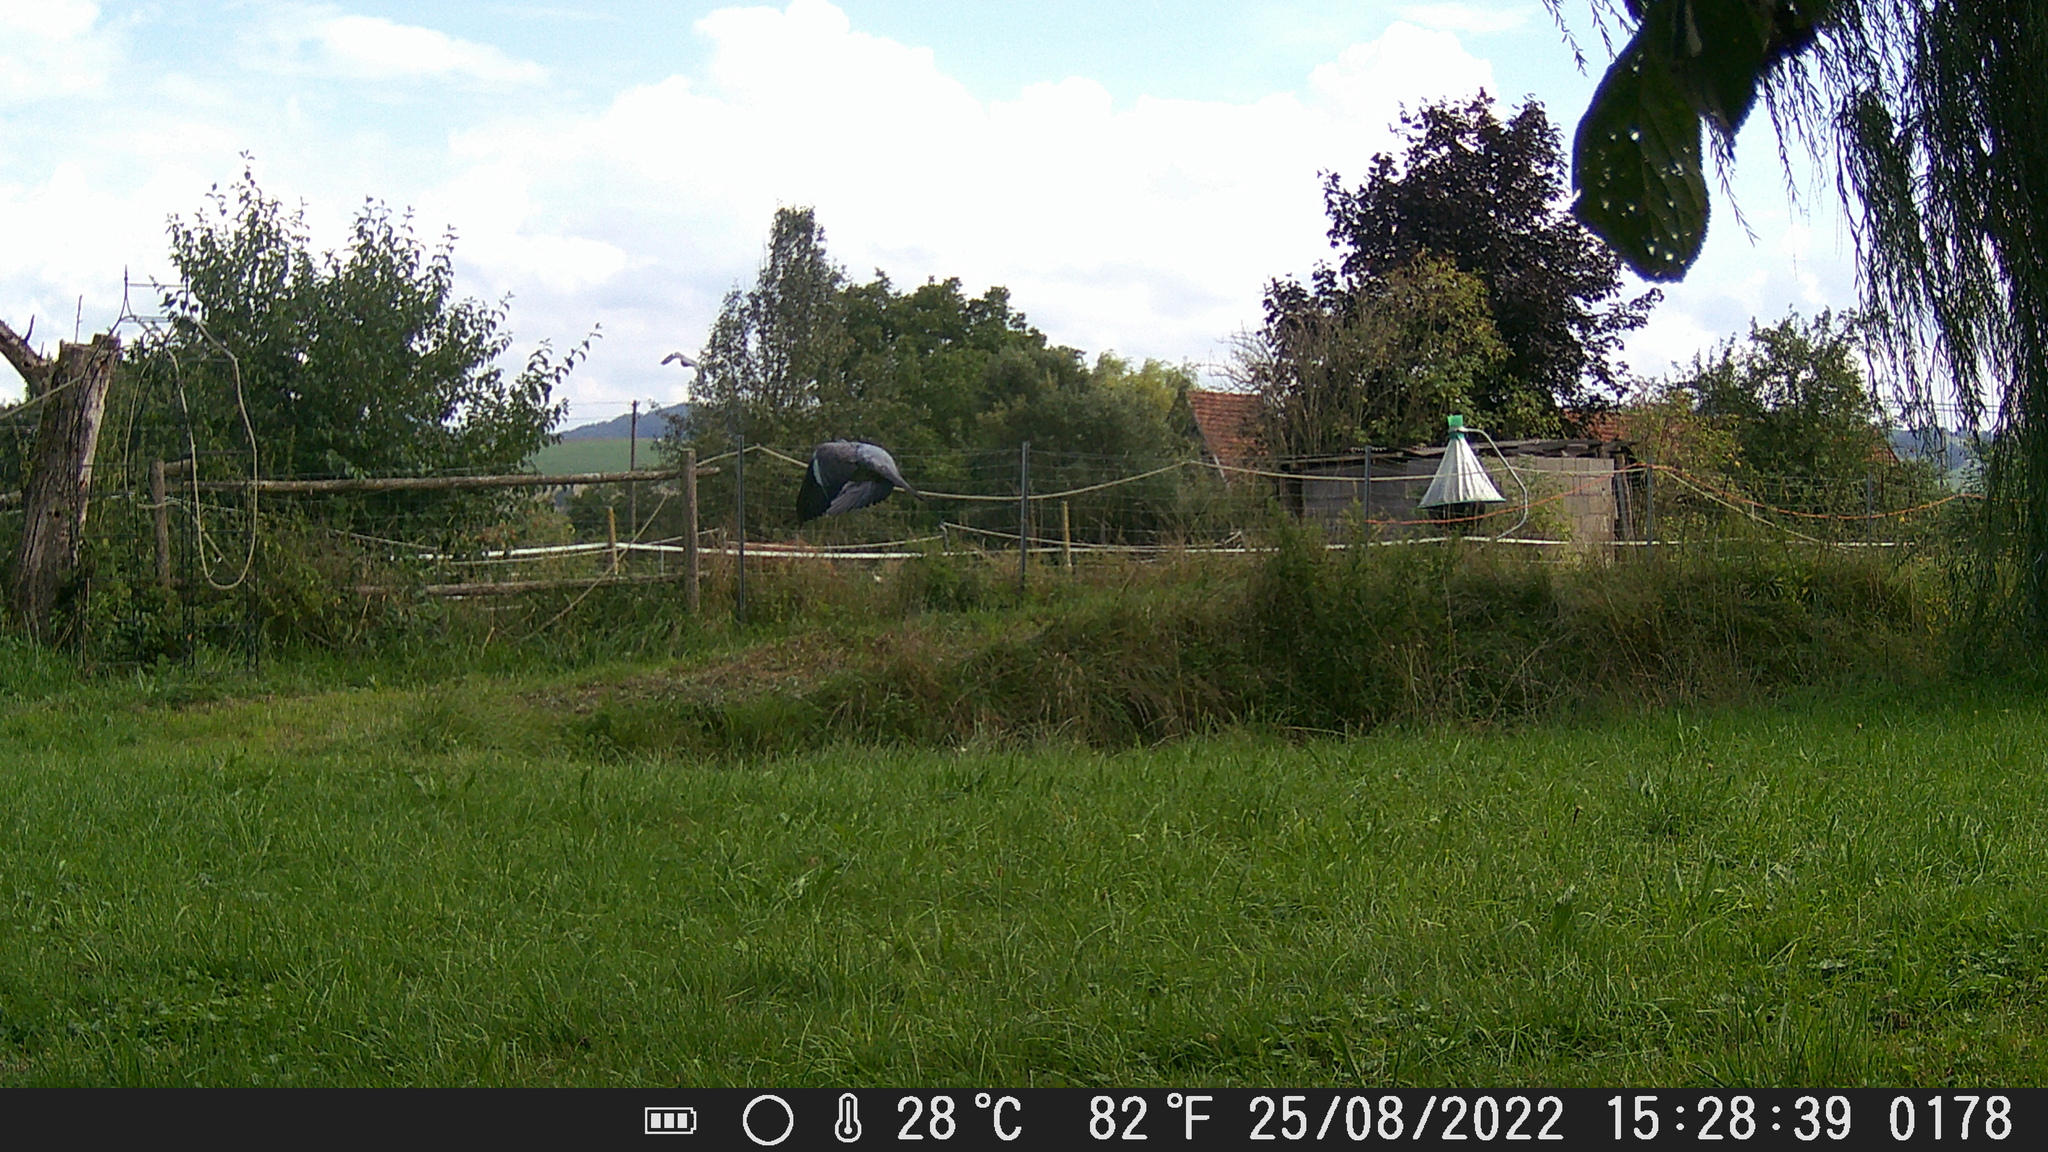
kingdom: Animalia
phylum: Chordata
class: Aves
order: Columbiformes
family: Columbidae
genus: Columba
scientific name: Columba palumbus
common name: Common wood pigeon
